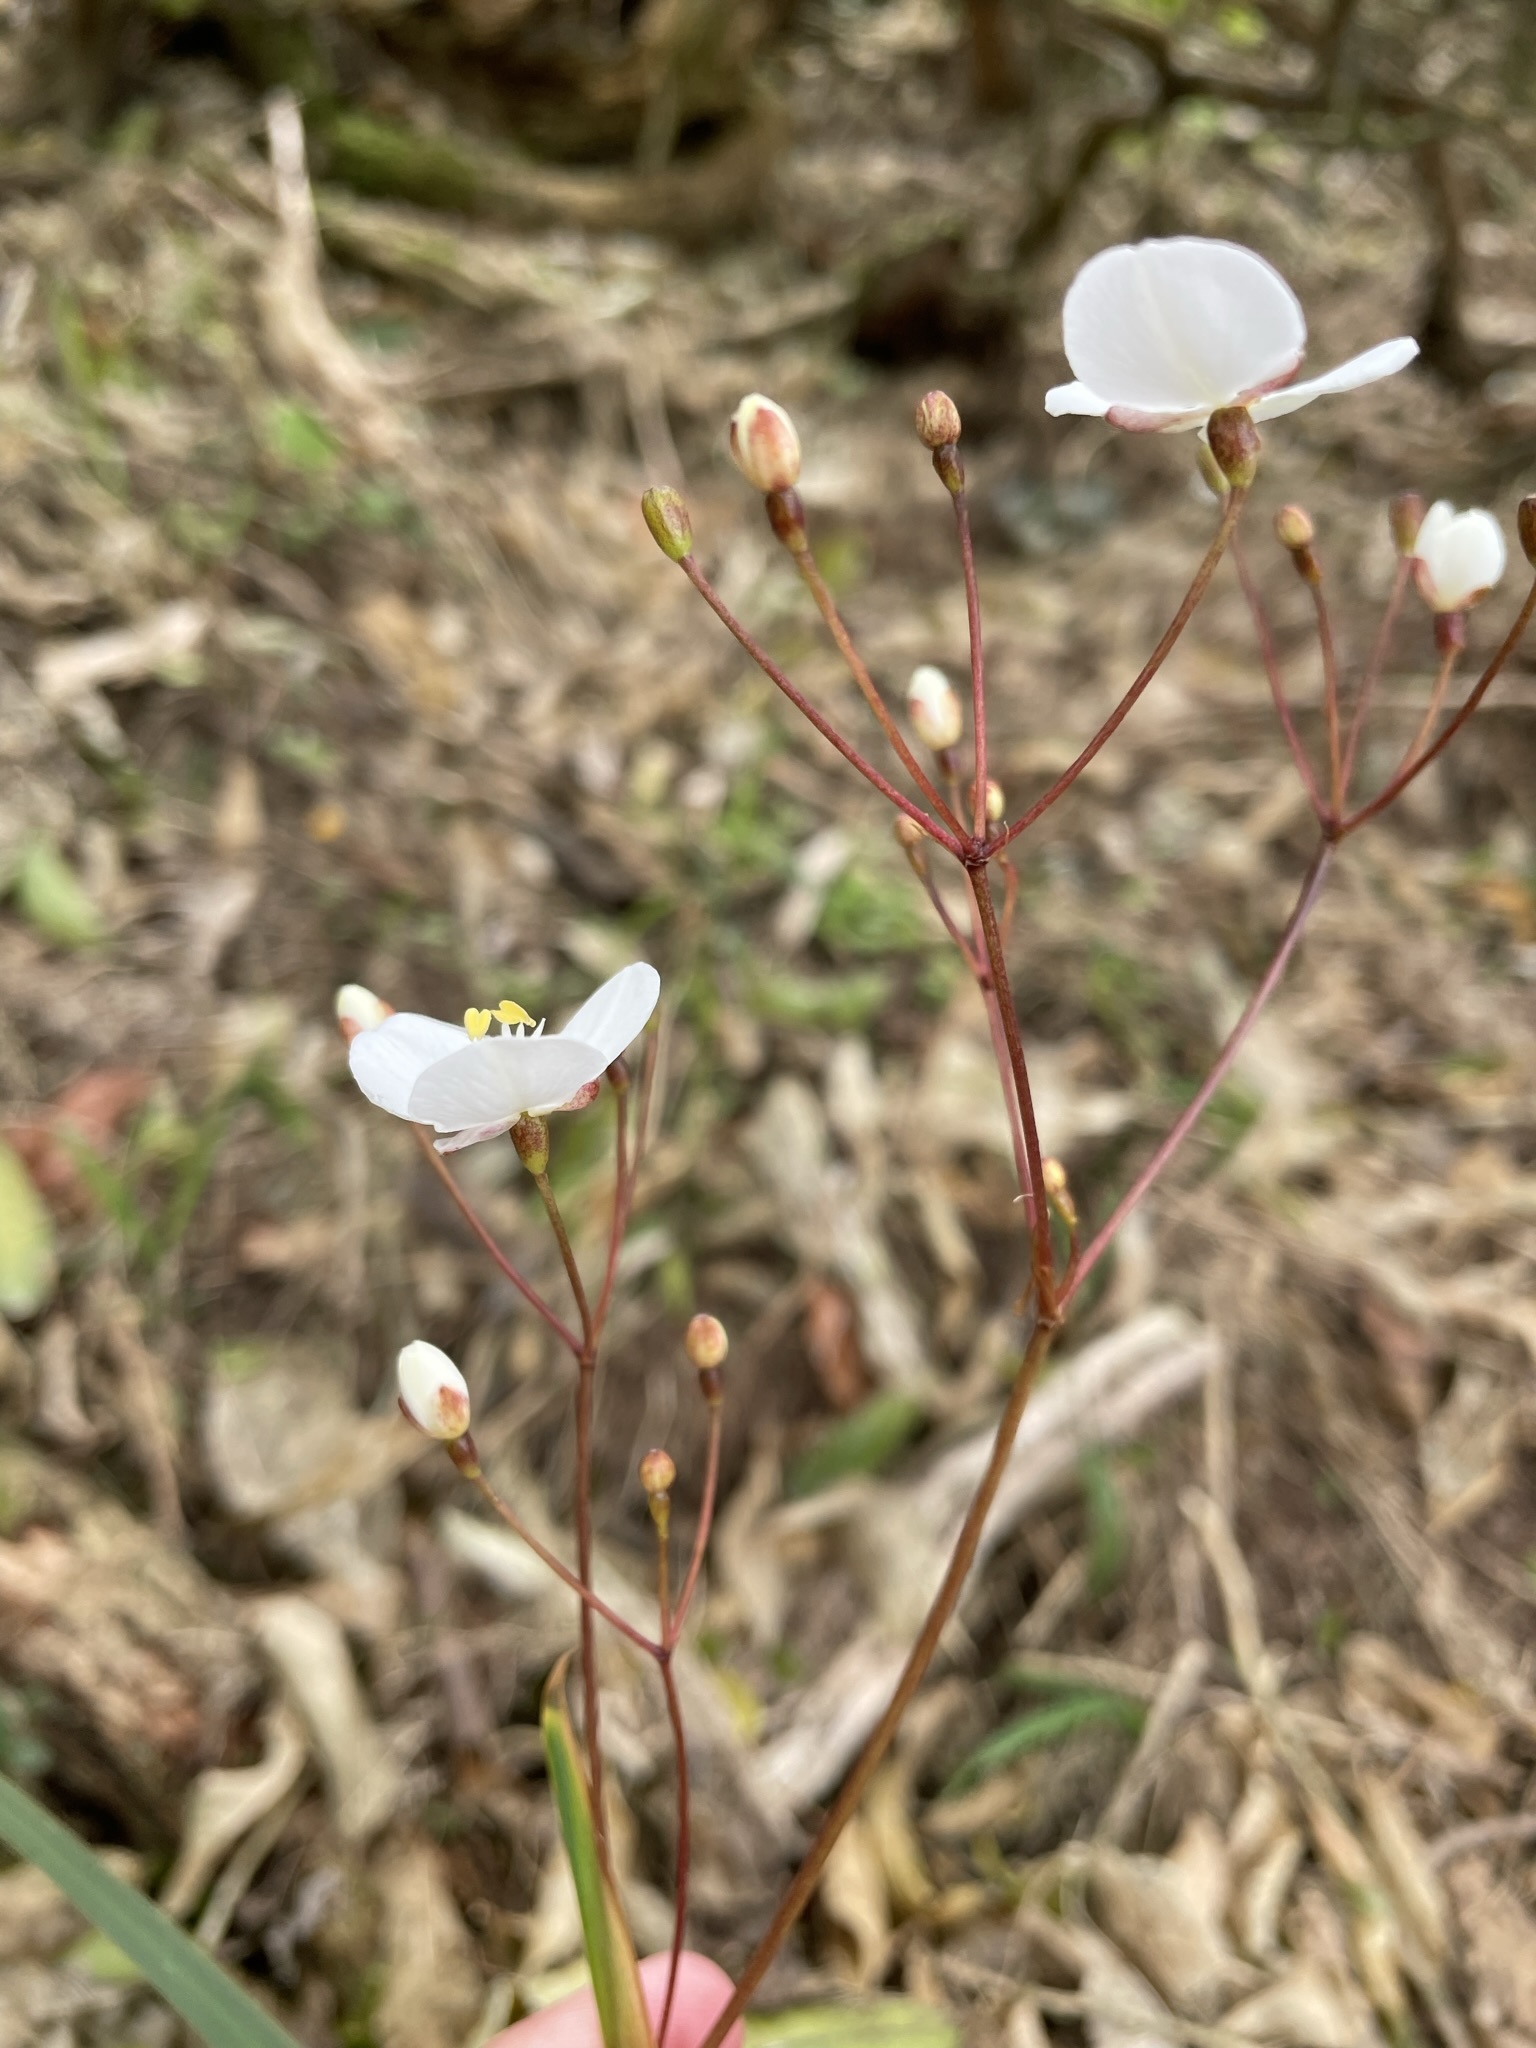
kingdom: Plantae
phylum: Tracheophyta
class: Liliopsida
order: Asparagales
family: Iridaceae
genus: Libertia
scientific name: Libertia grandiflora
